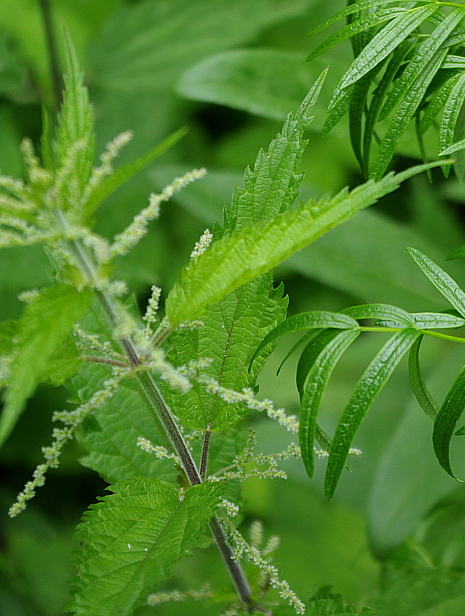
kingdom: Plantae
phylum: Tracheophyta
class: Magnoliopsida
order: Rosales
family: Urticaceae
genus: Urtica
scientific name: Urtica dioica
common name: Common nettle
